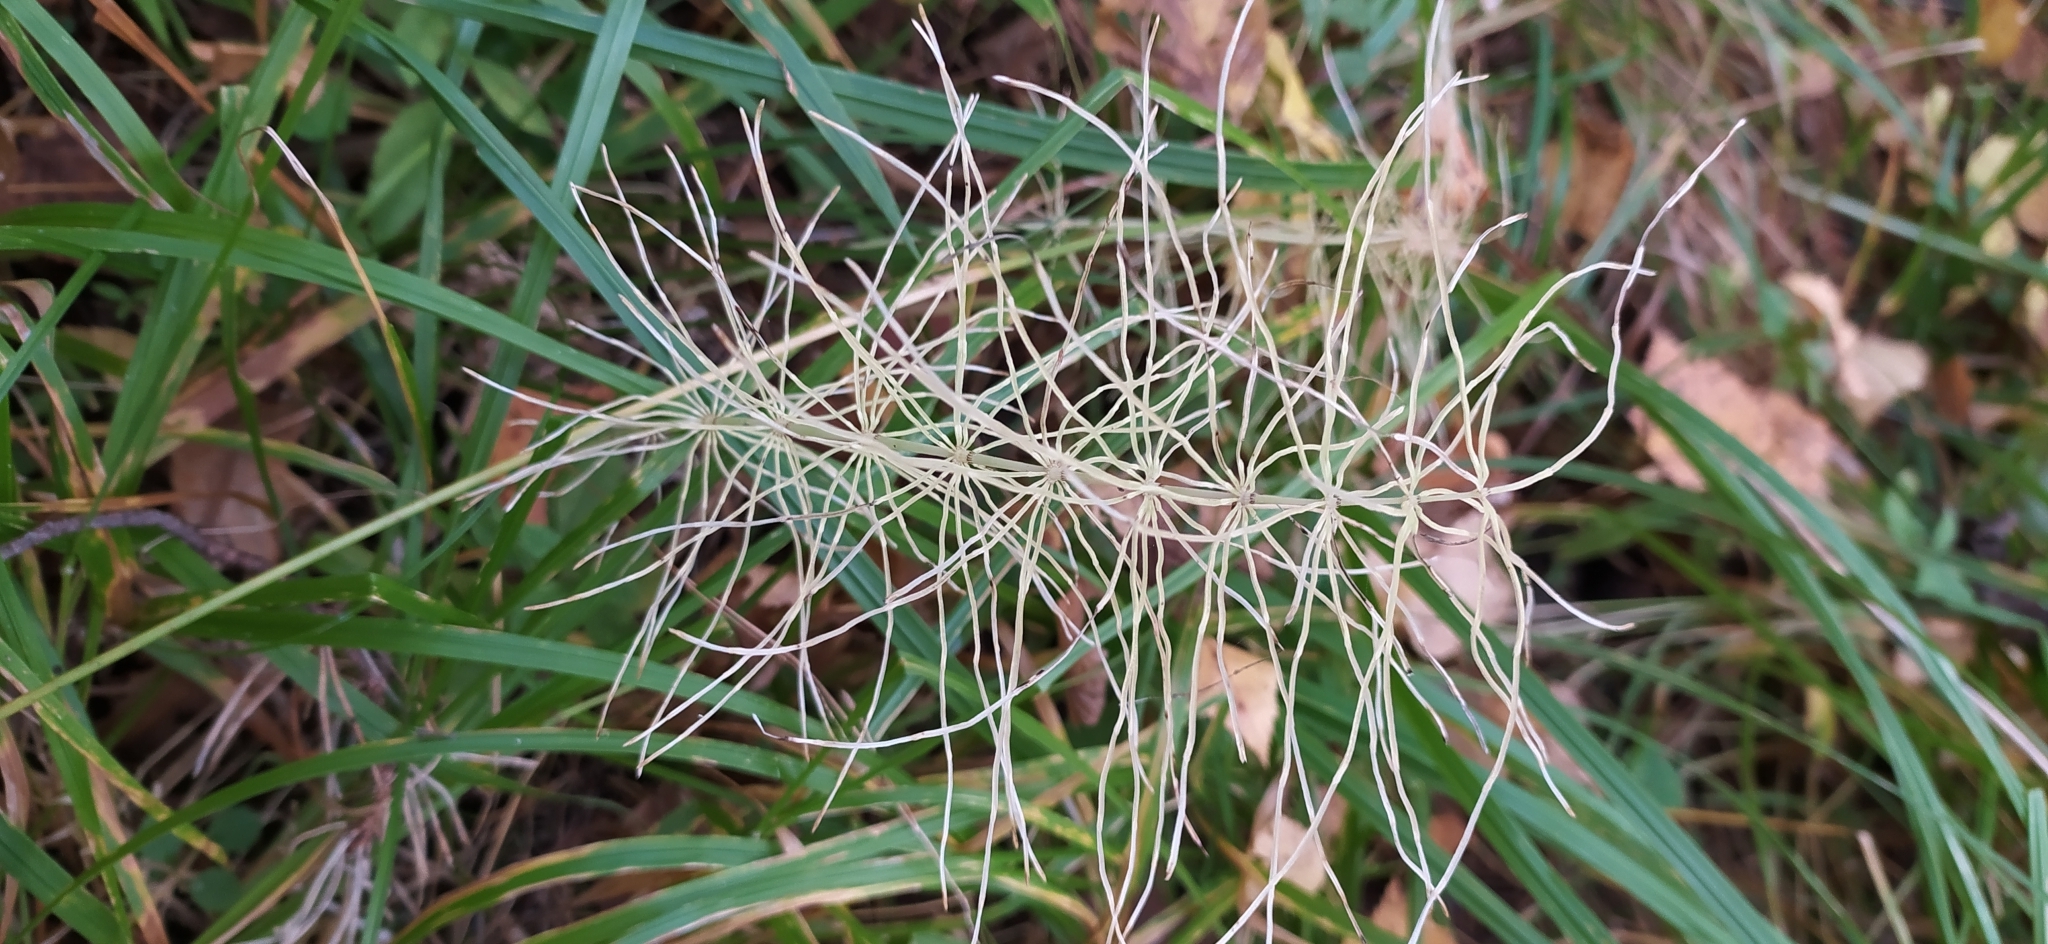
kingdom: Plantae
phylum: Tracheophyta
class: Polypodiopsida
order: Equisetales
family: Equisetaceae
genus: Equisetum
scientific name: Equisetum pratense
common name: Meadow horsetail
